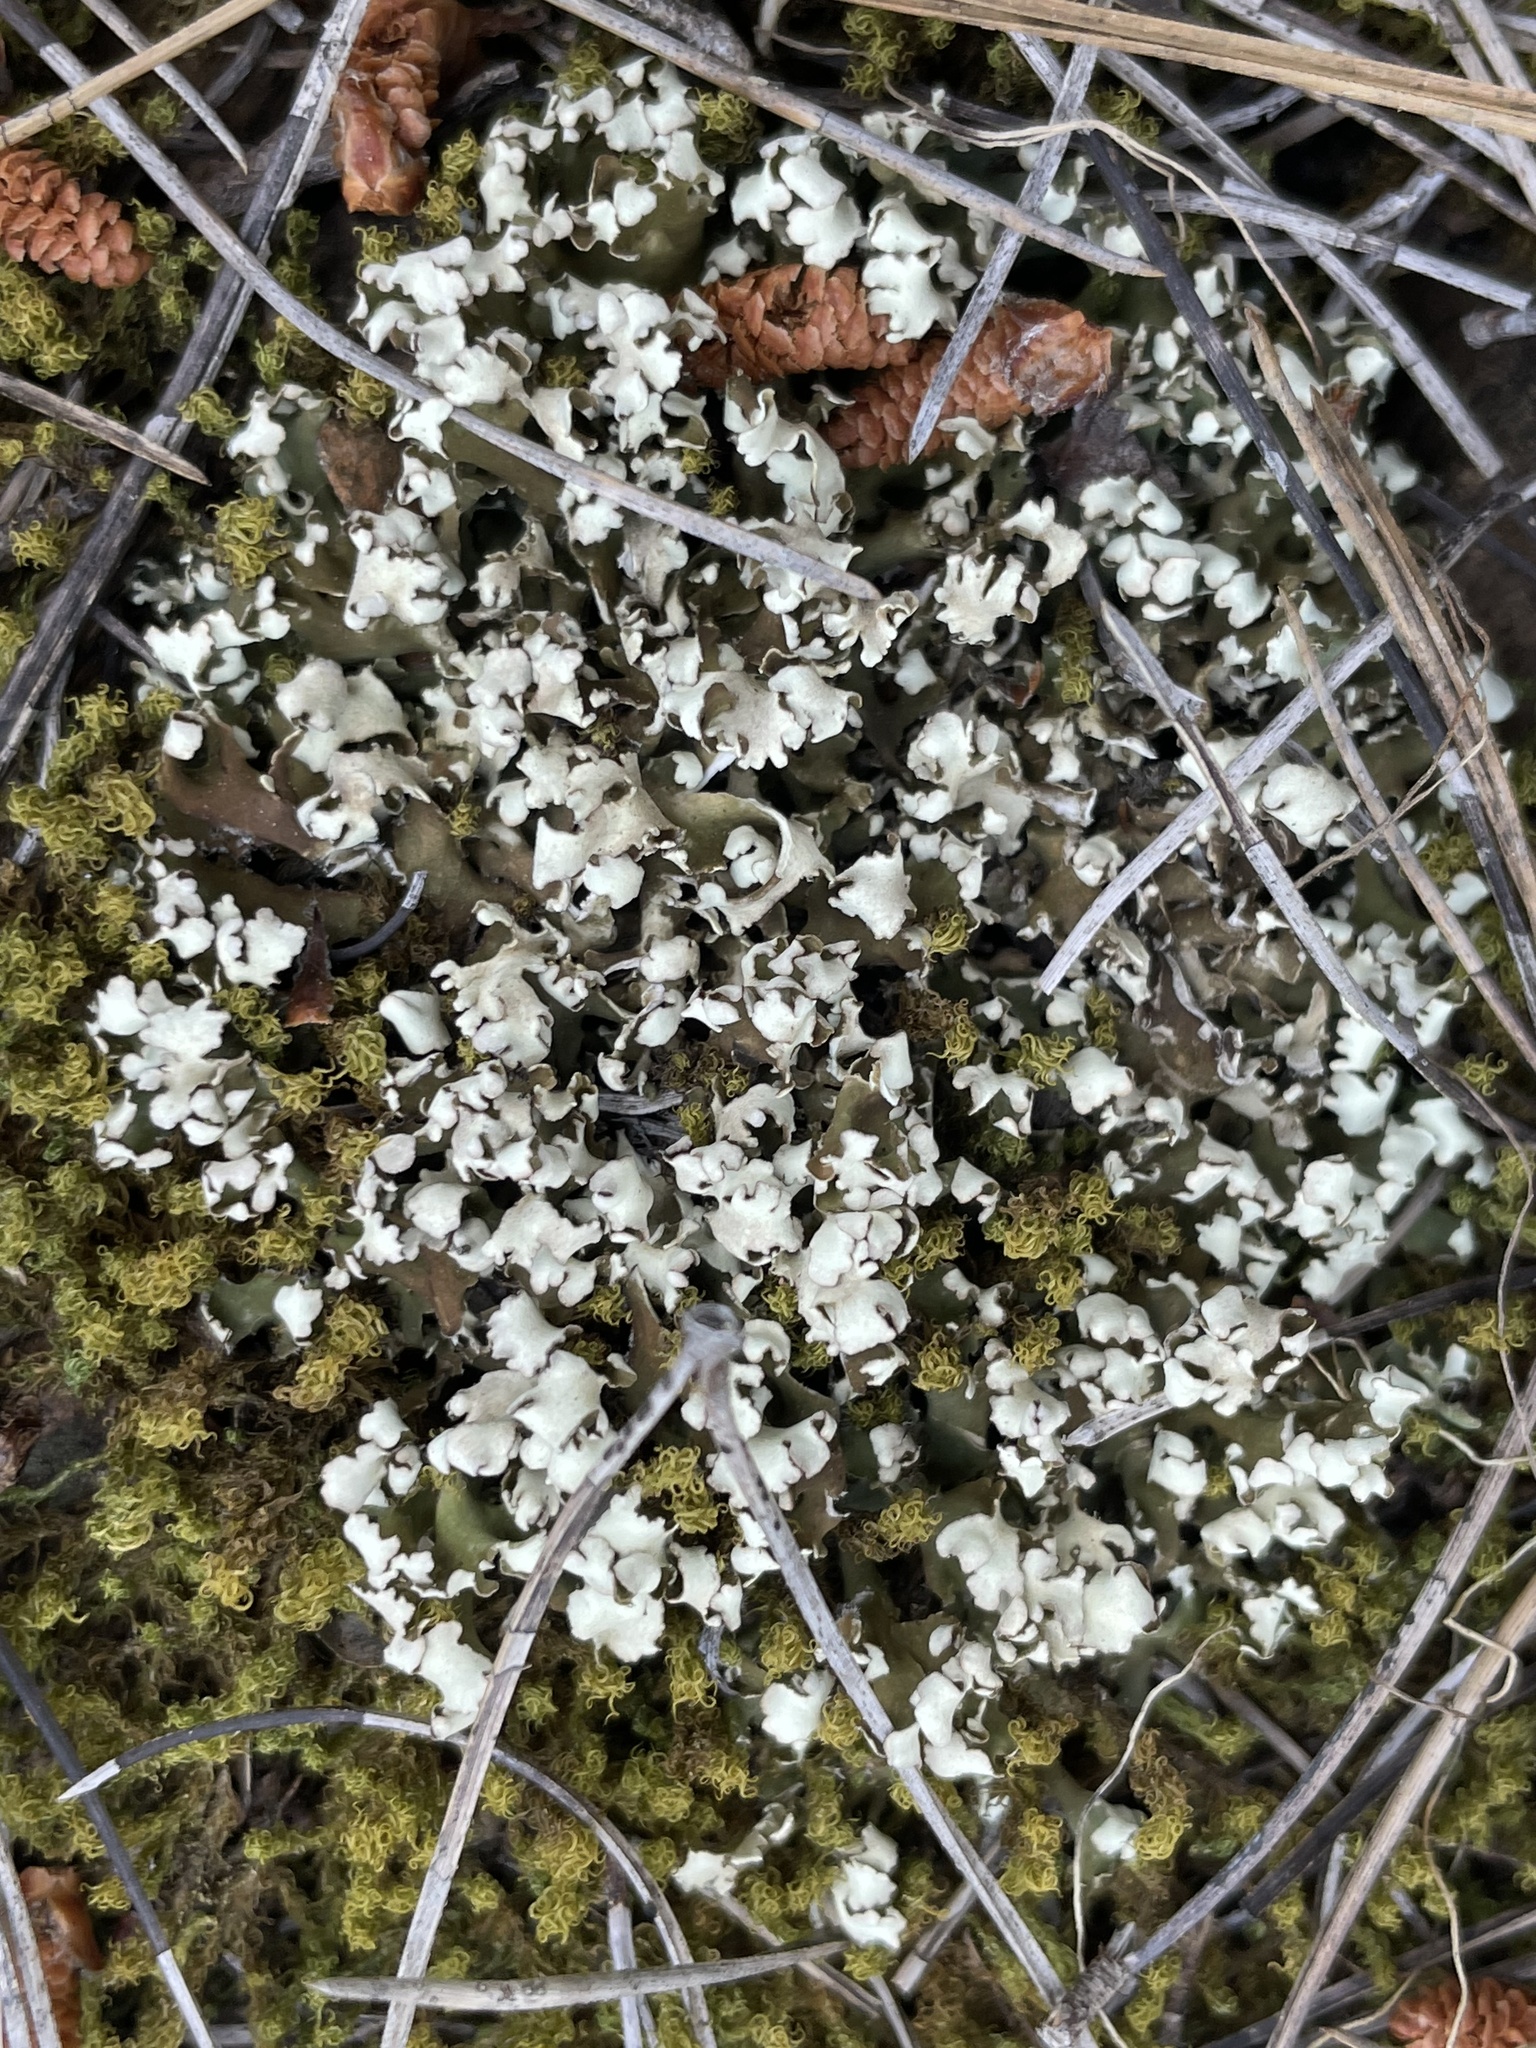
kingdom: Fungi
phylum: Ascomycota
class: Lecanoromycetes
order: Lecanorales
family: Cladoniaceae
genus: Cladonia
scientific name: Cladonia foliacea
